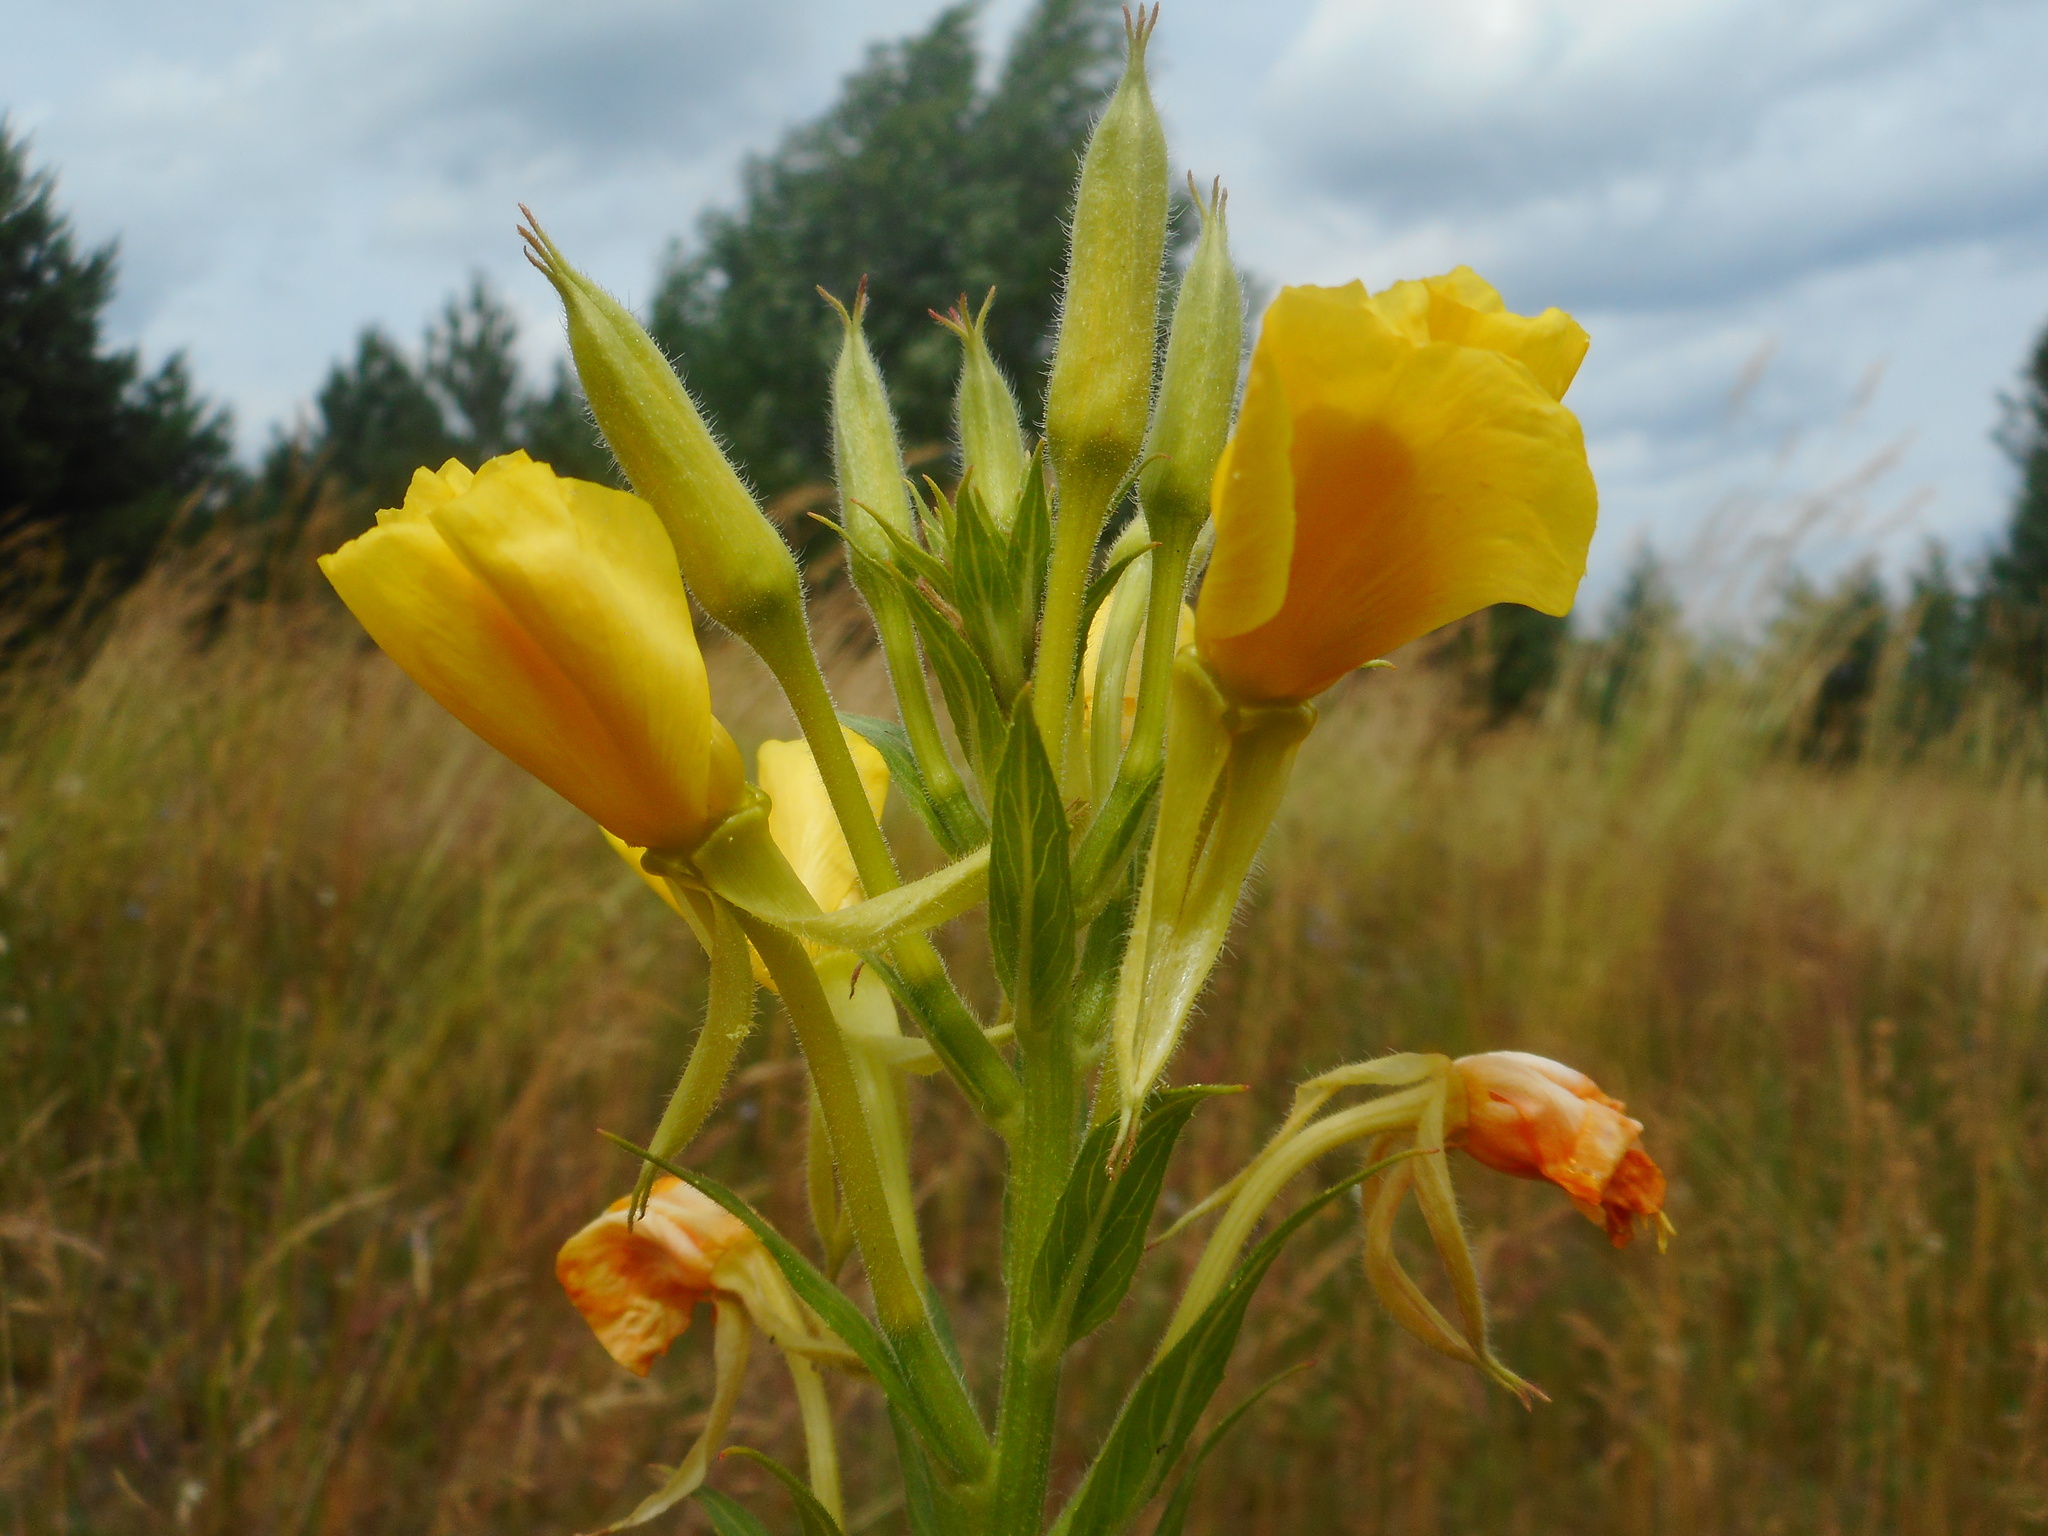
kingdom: Plantae
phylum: Tracheophyta
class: Magnoliopsida
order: Myrtales
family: Onagraceae
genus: Oenothera
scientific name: Oenothera biennis
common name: Common evening-primrose
